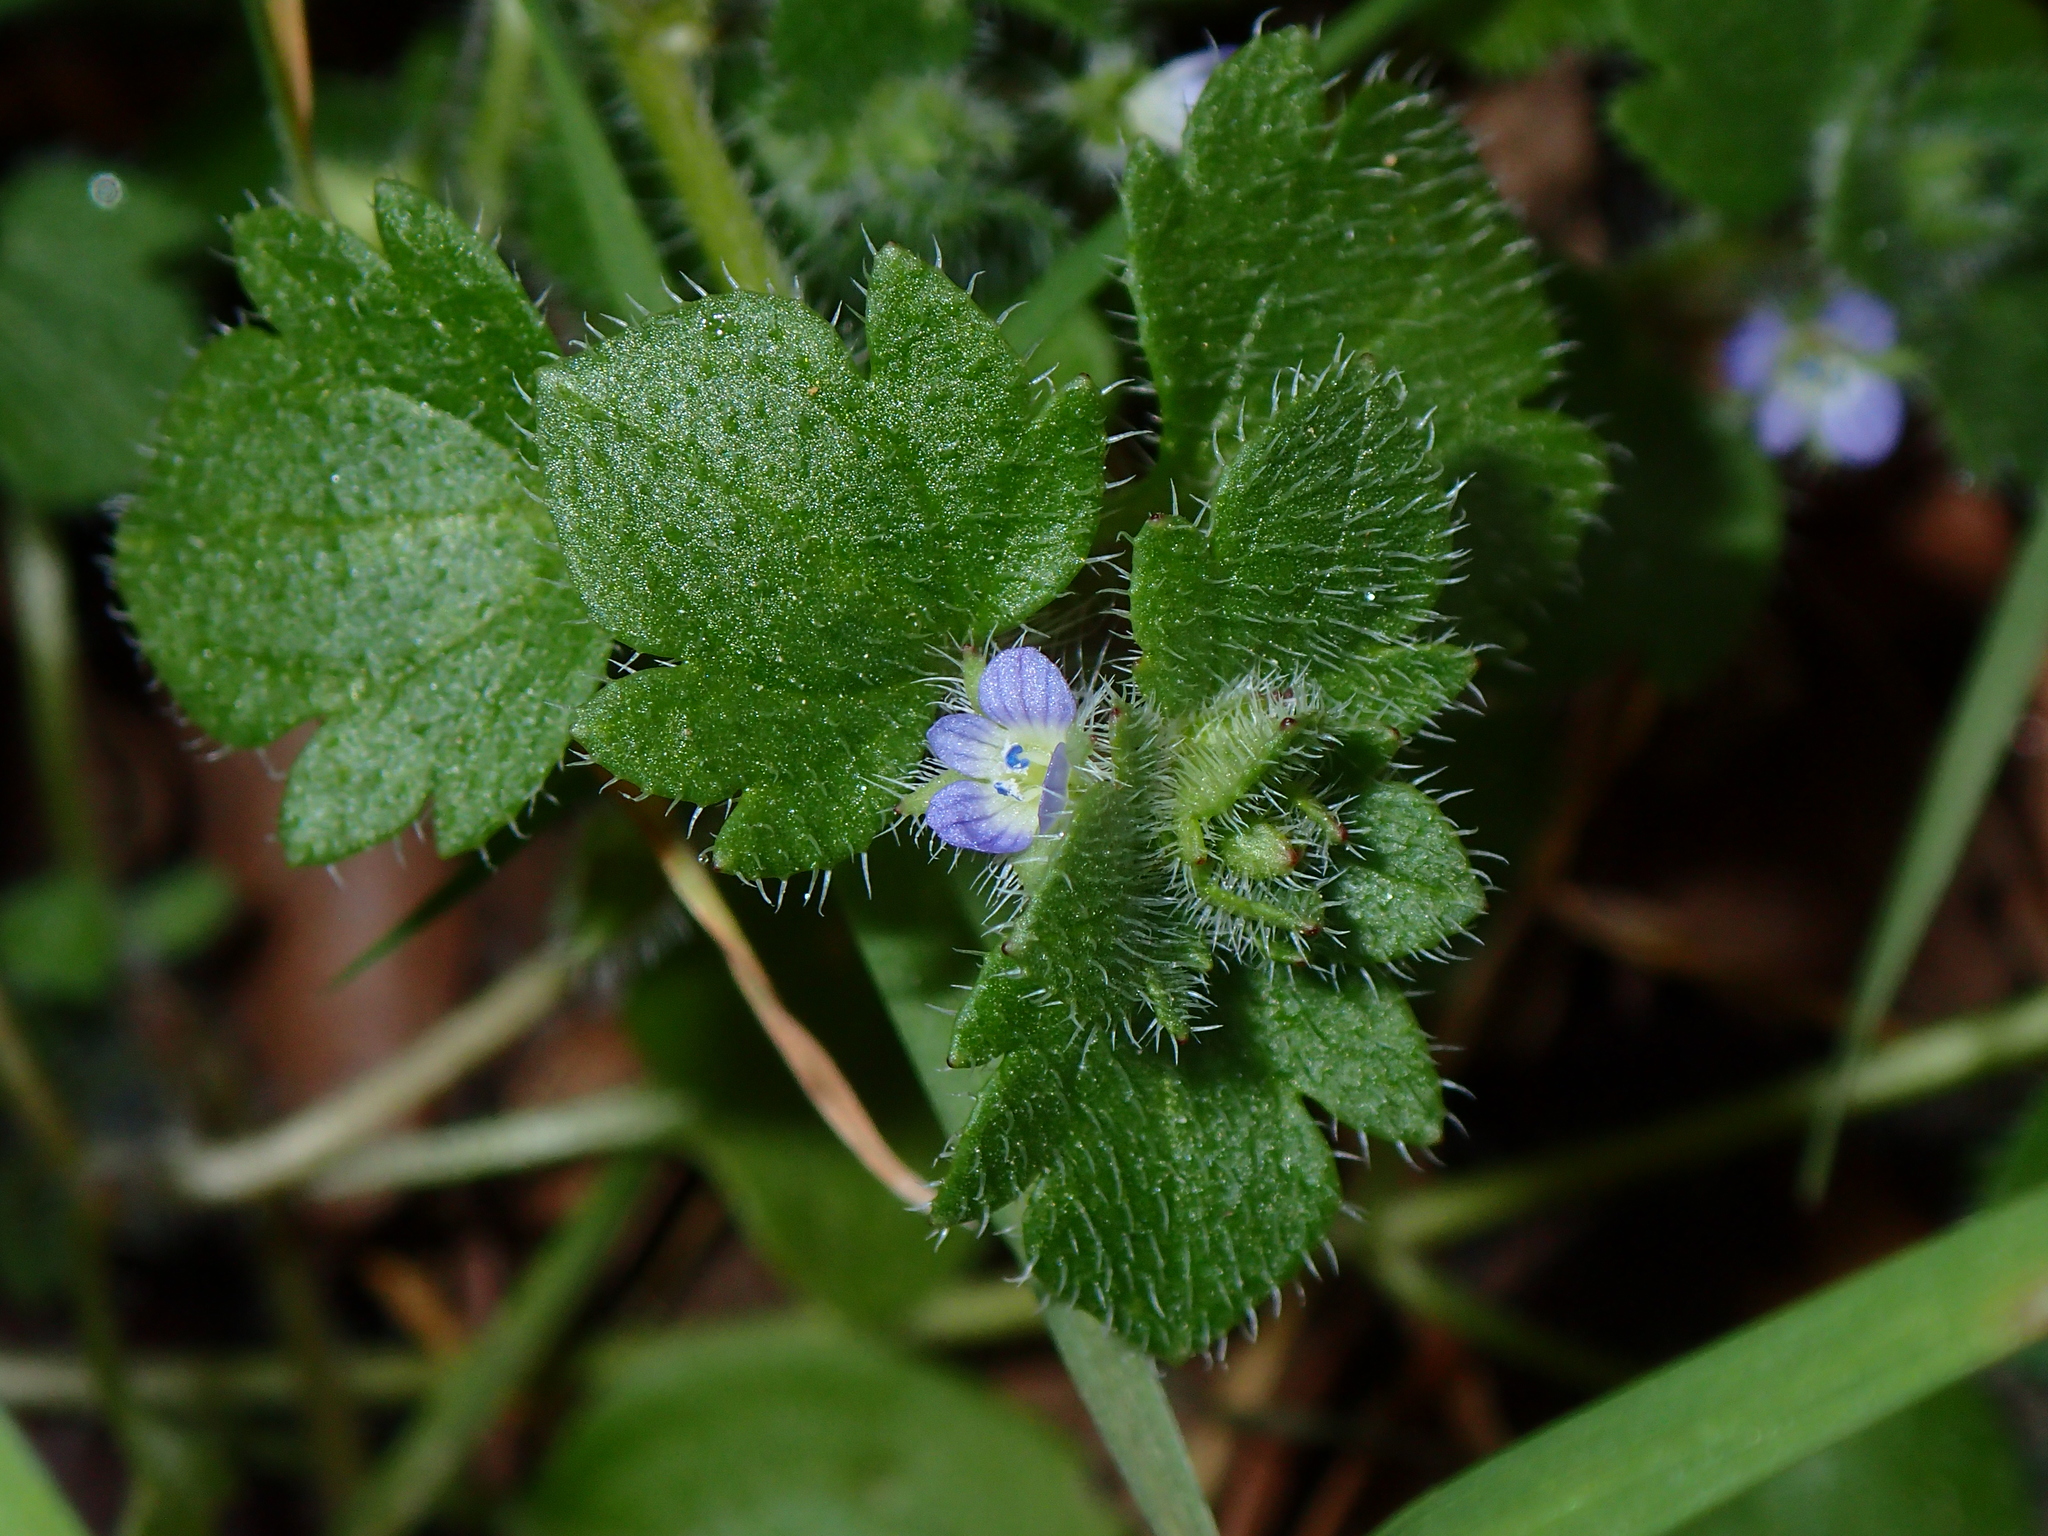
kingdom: Plantae
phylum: Tracheophyta
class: Magnoliopsida
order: Lamiales
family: Plantaginaceae
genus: Veronica
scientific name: Veronica hederifolia
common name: Ivy-leaved speedwell
